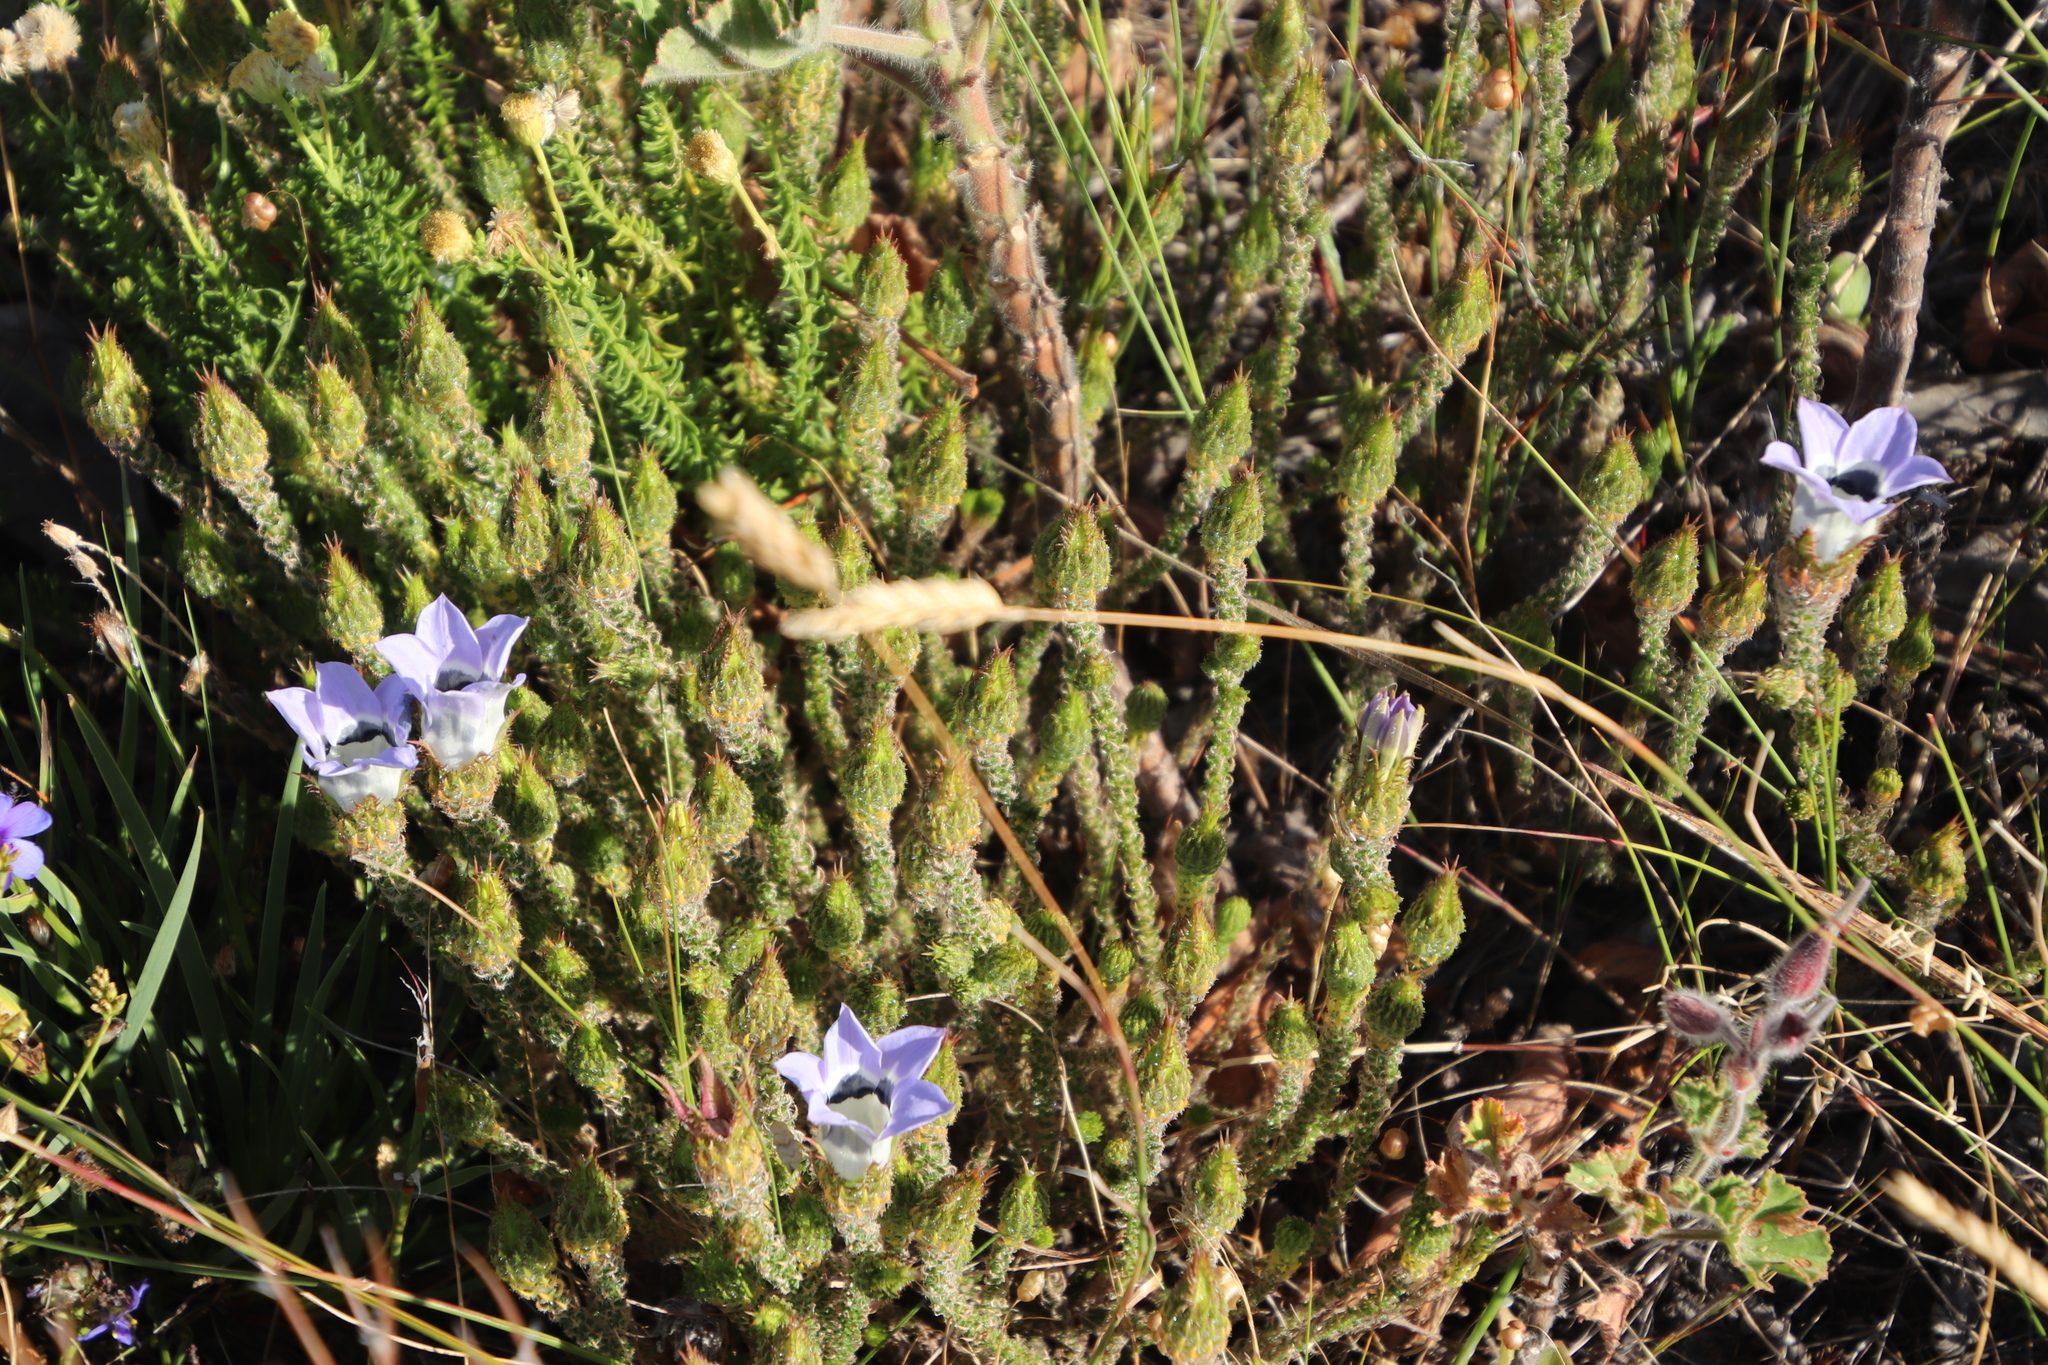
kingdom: Plantae
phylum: Tracheophyta
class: Magnoliopsida
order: Asterales
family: Campanulaceae
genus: Roella
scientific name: Roella ciliata
